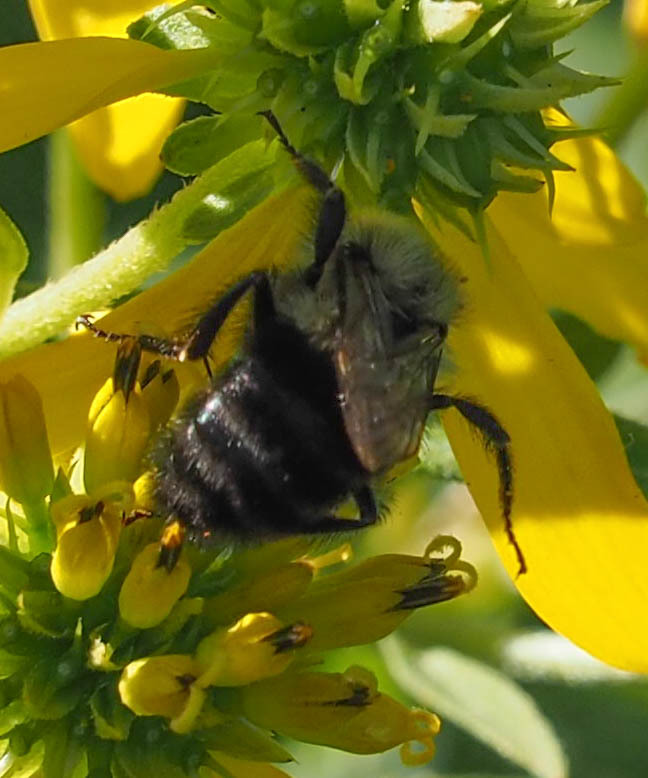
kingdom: Animalia
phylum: Arthropoda
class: Insecta
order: Hymenoptera
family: Apidae
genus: Bombus
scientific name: Bombus impatiens
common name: Common eastern bumble bee
